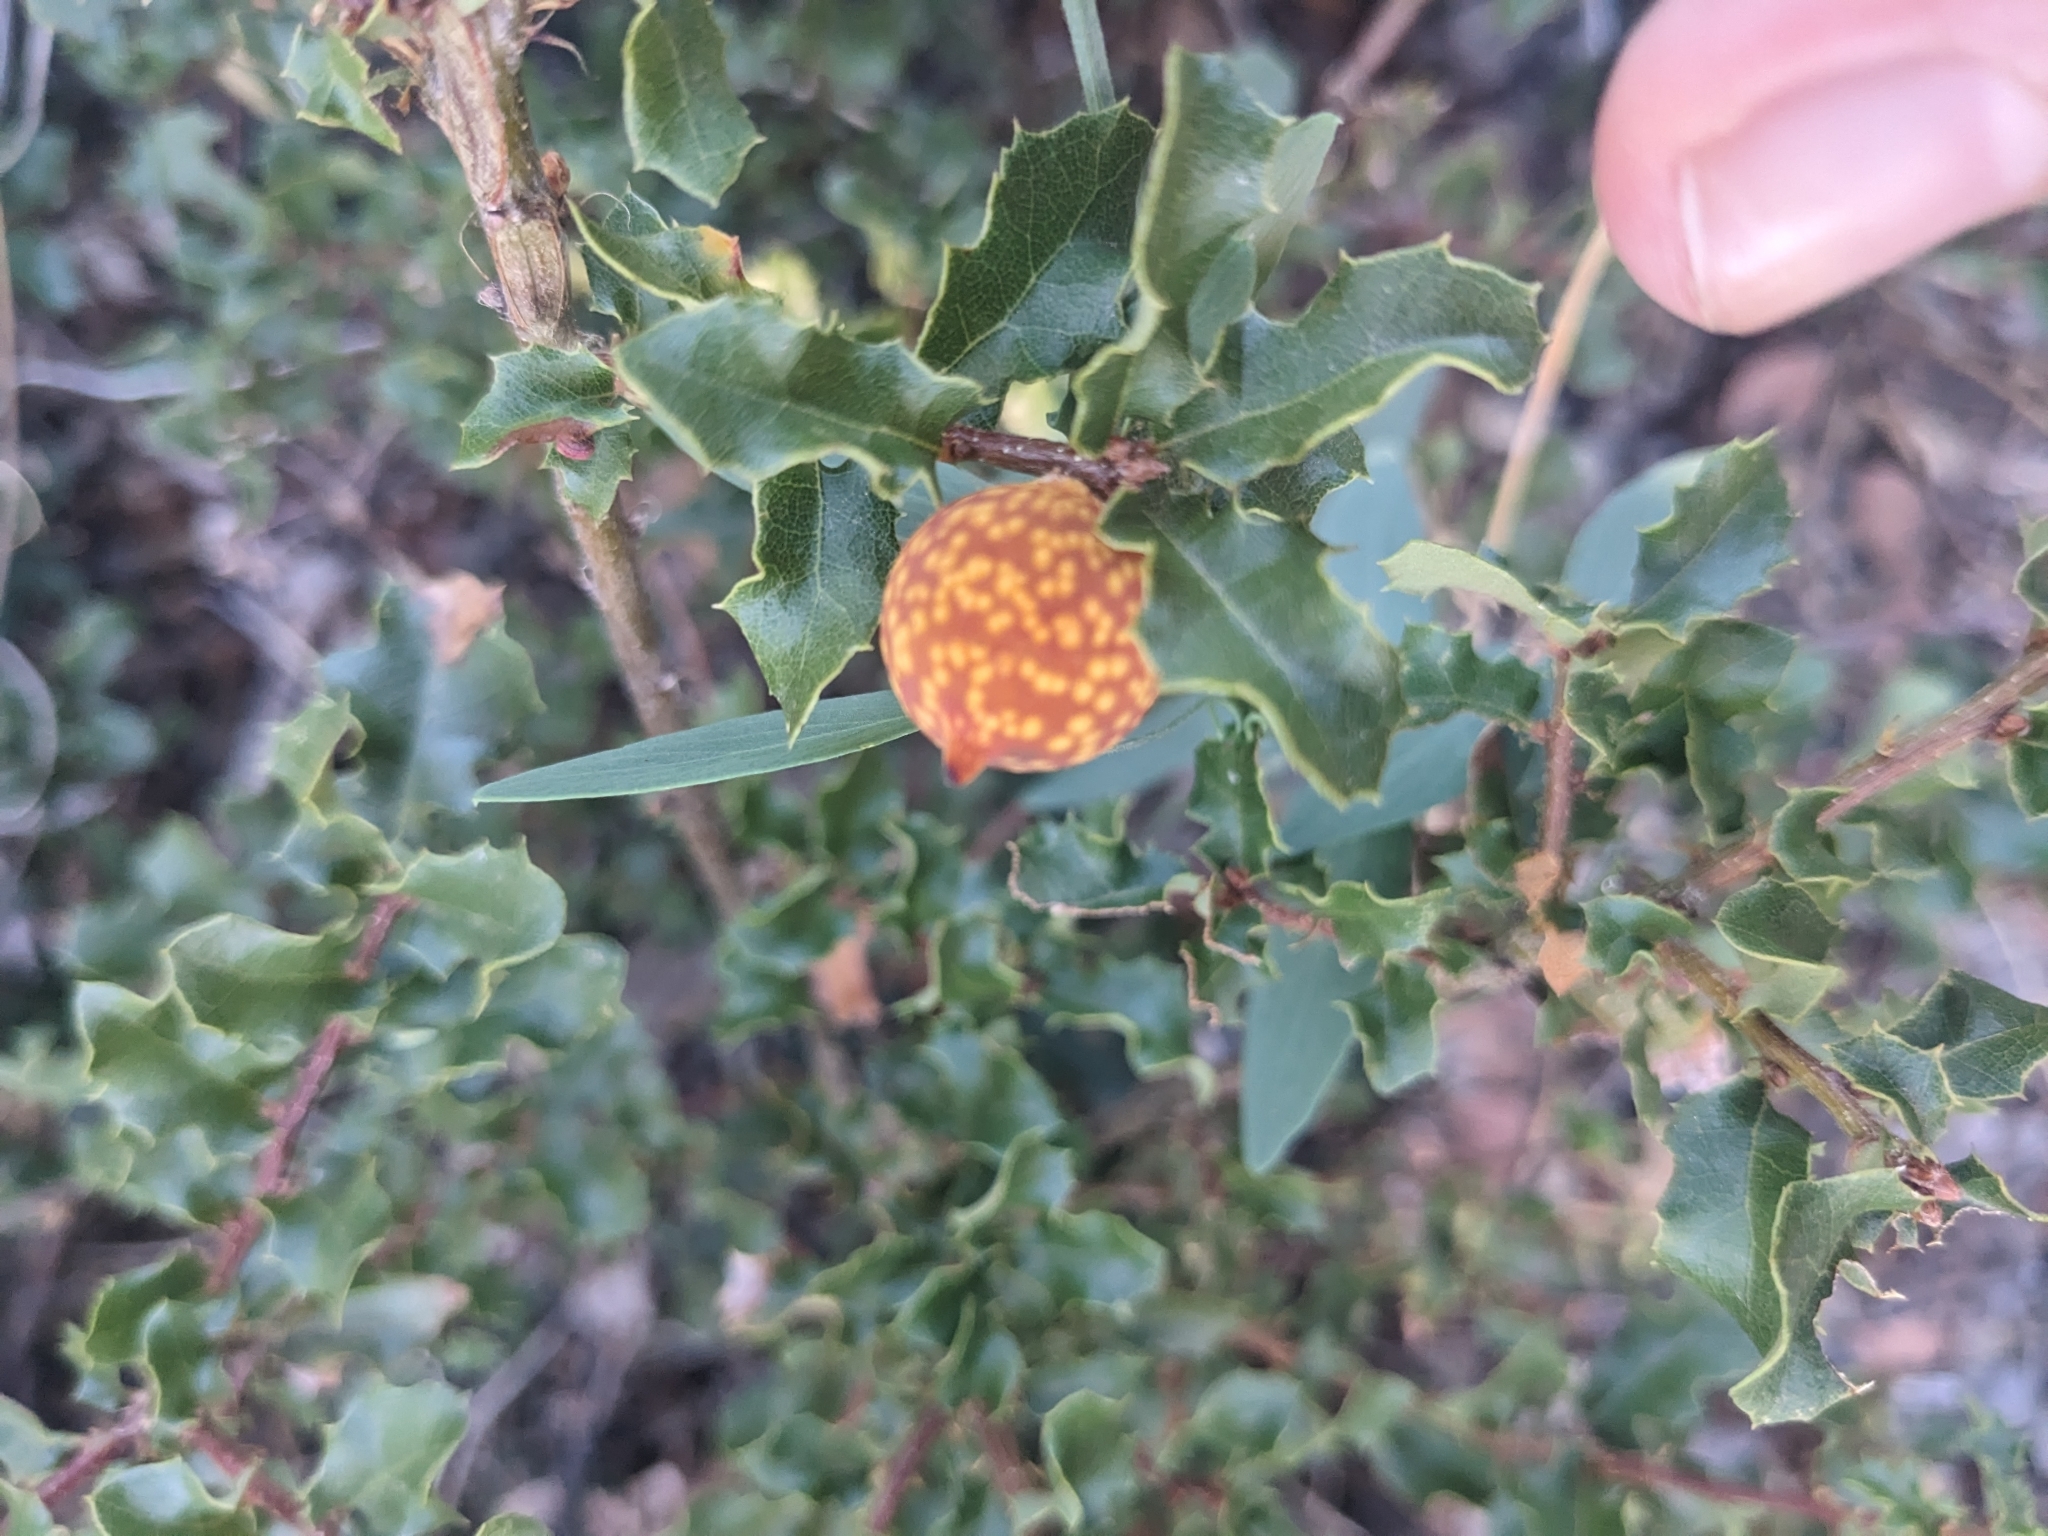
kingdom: Animalia
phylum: Arthropoda
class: Insecta
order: Hymenoptera
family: Cynipidae
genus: Burnettweldia
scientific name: Burnettweldia
